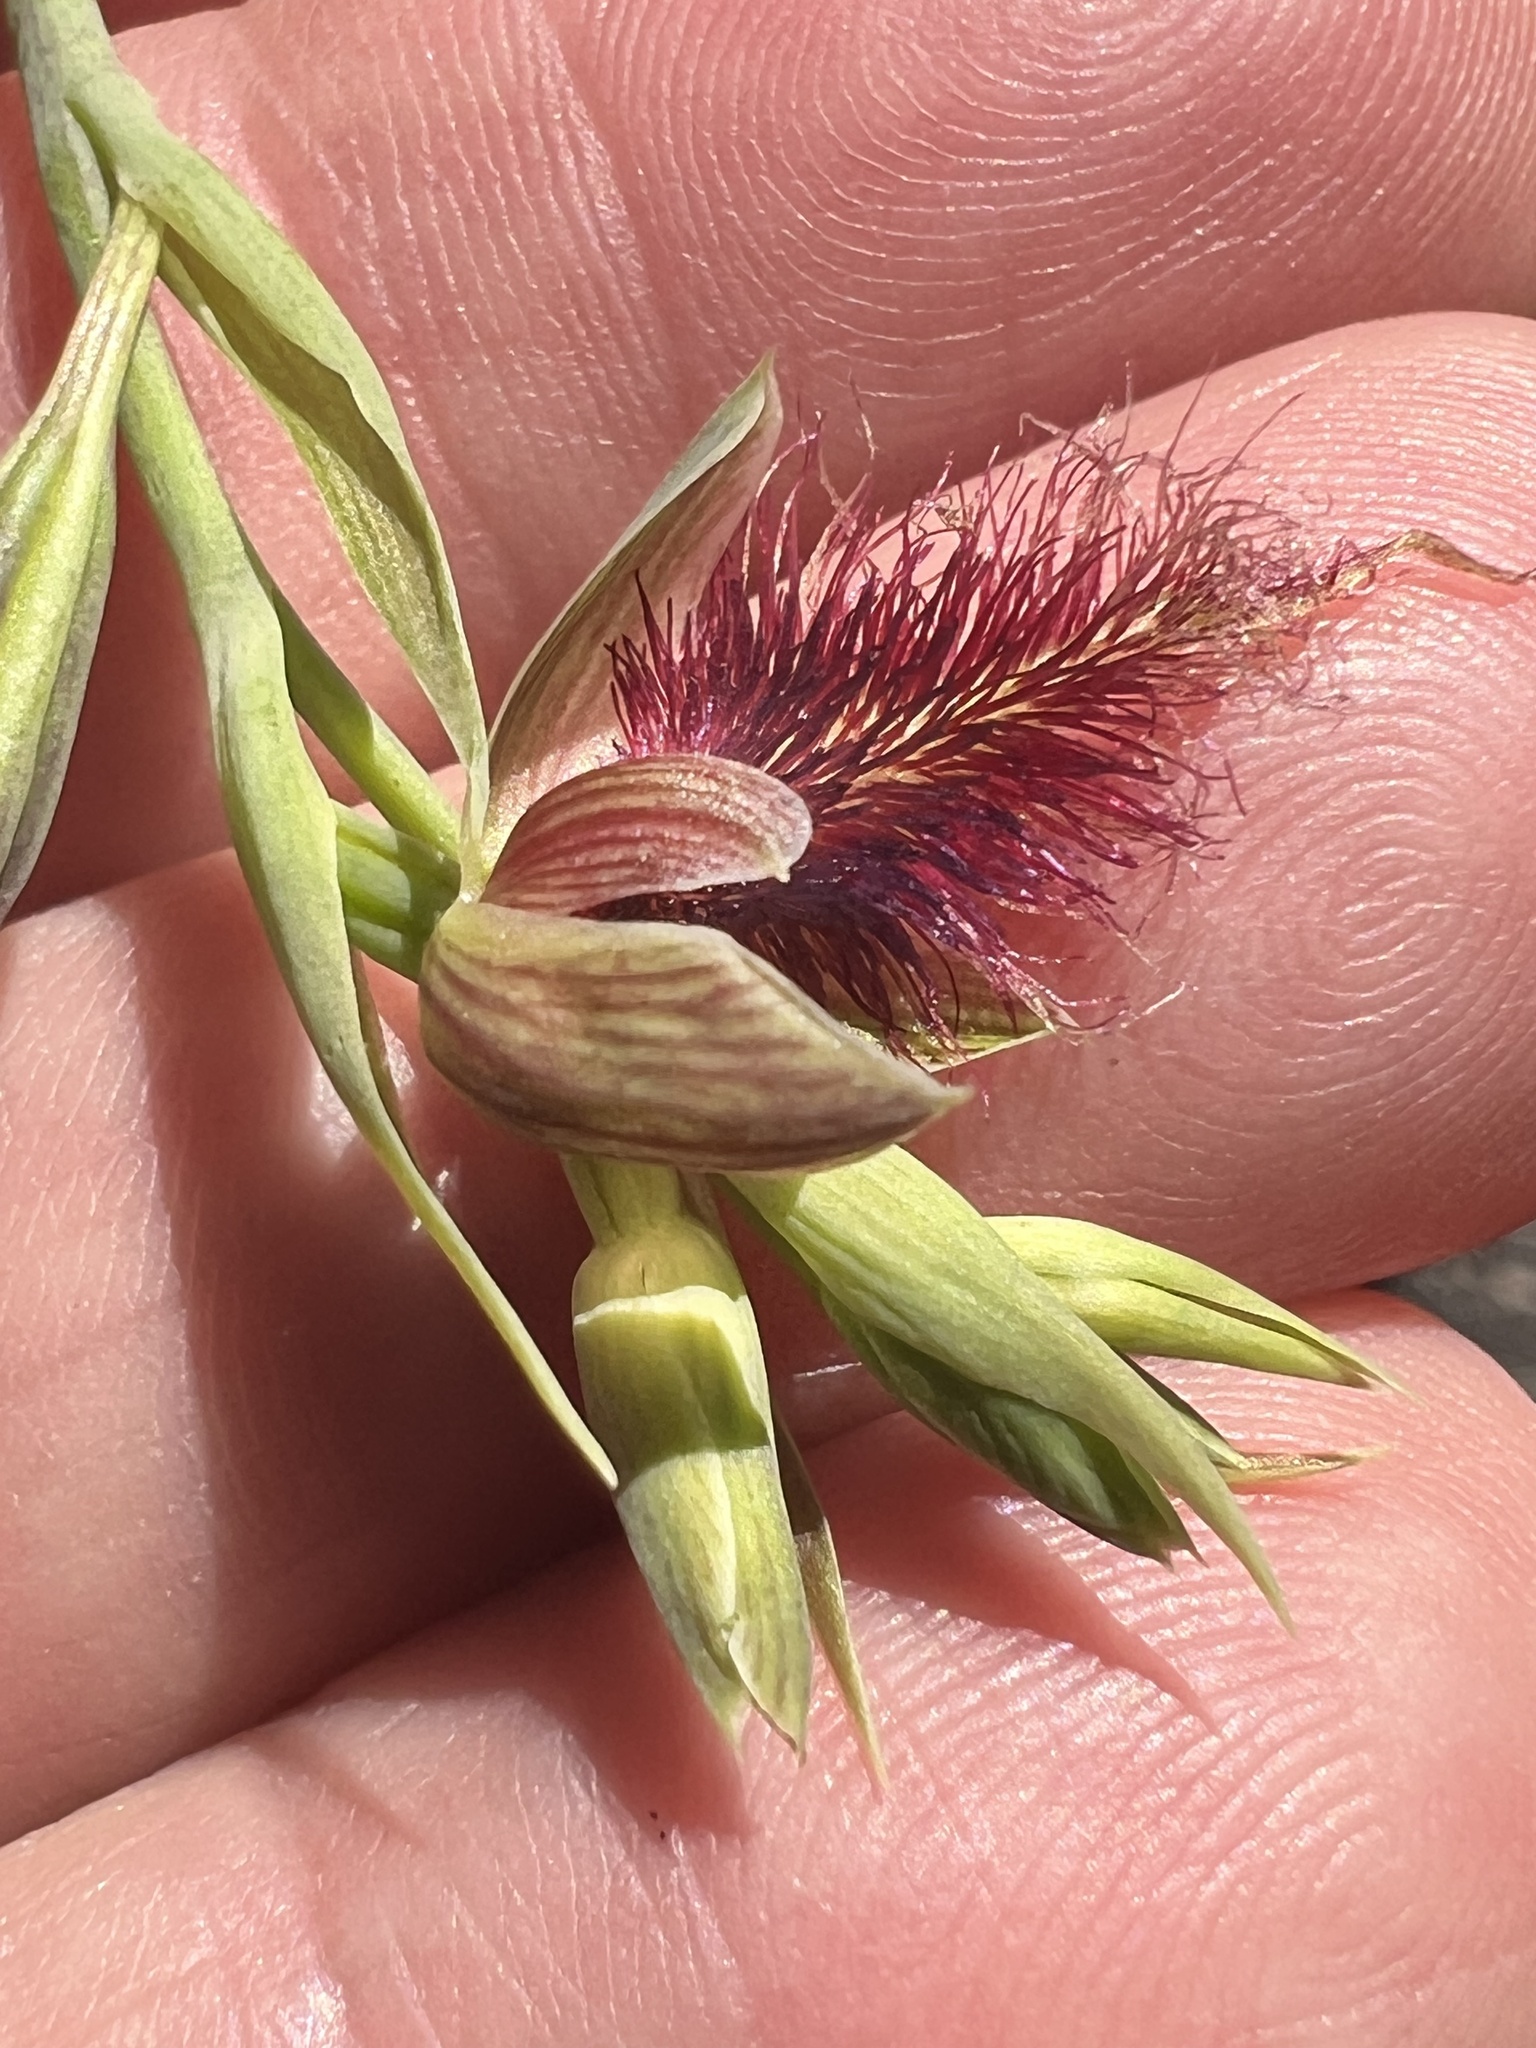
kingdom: Plantae
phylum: Tracheophyta
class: Liliopsida
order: Asparagales
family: Orchidaceae
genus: Calochilus
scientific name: Calochilus gracillimus
